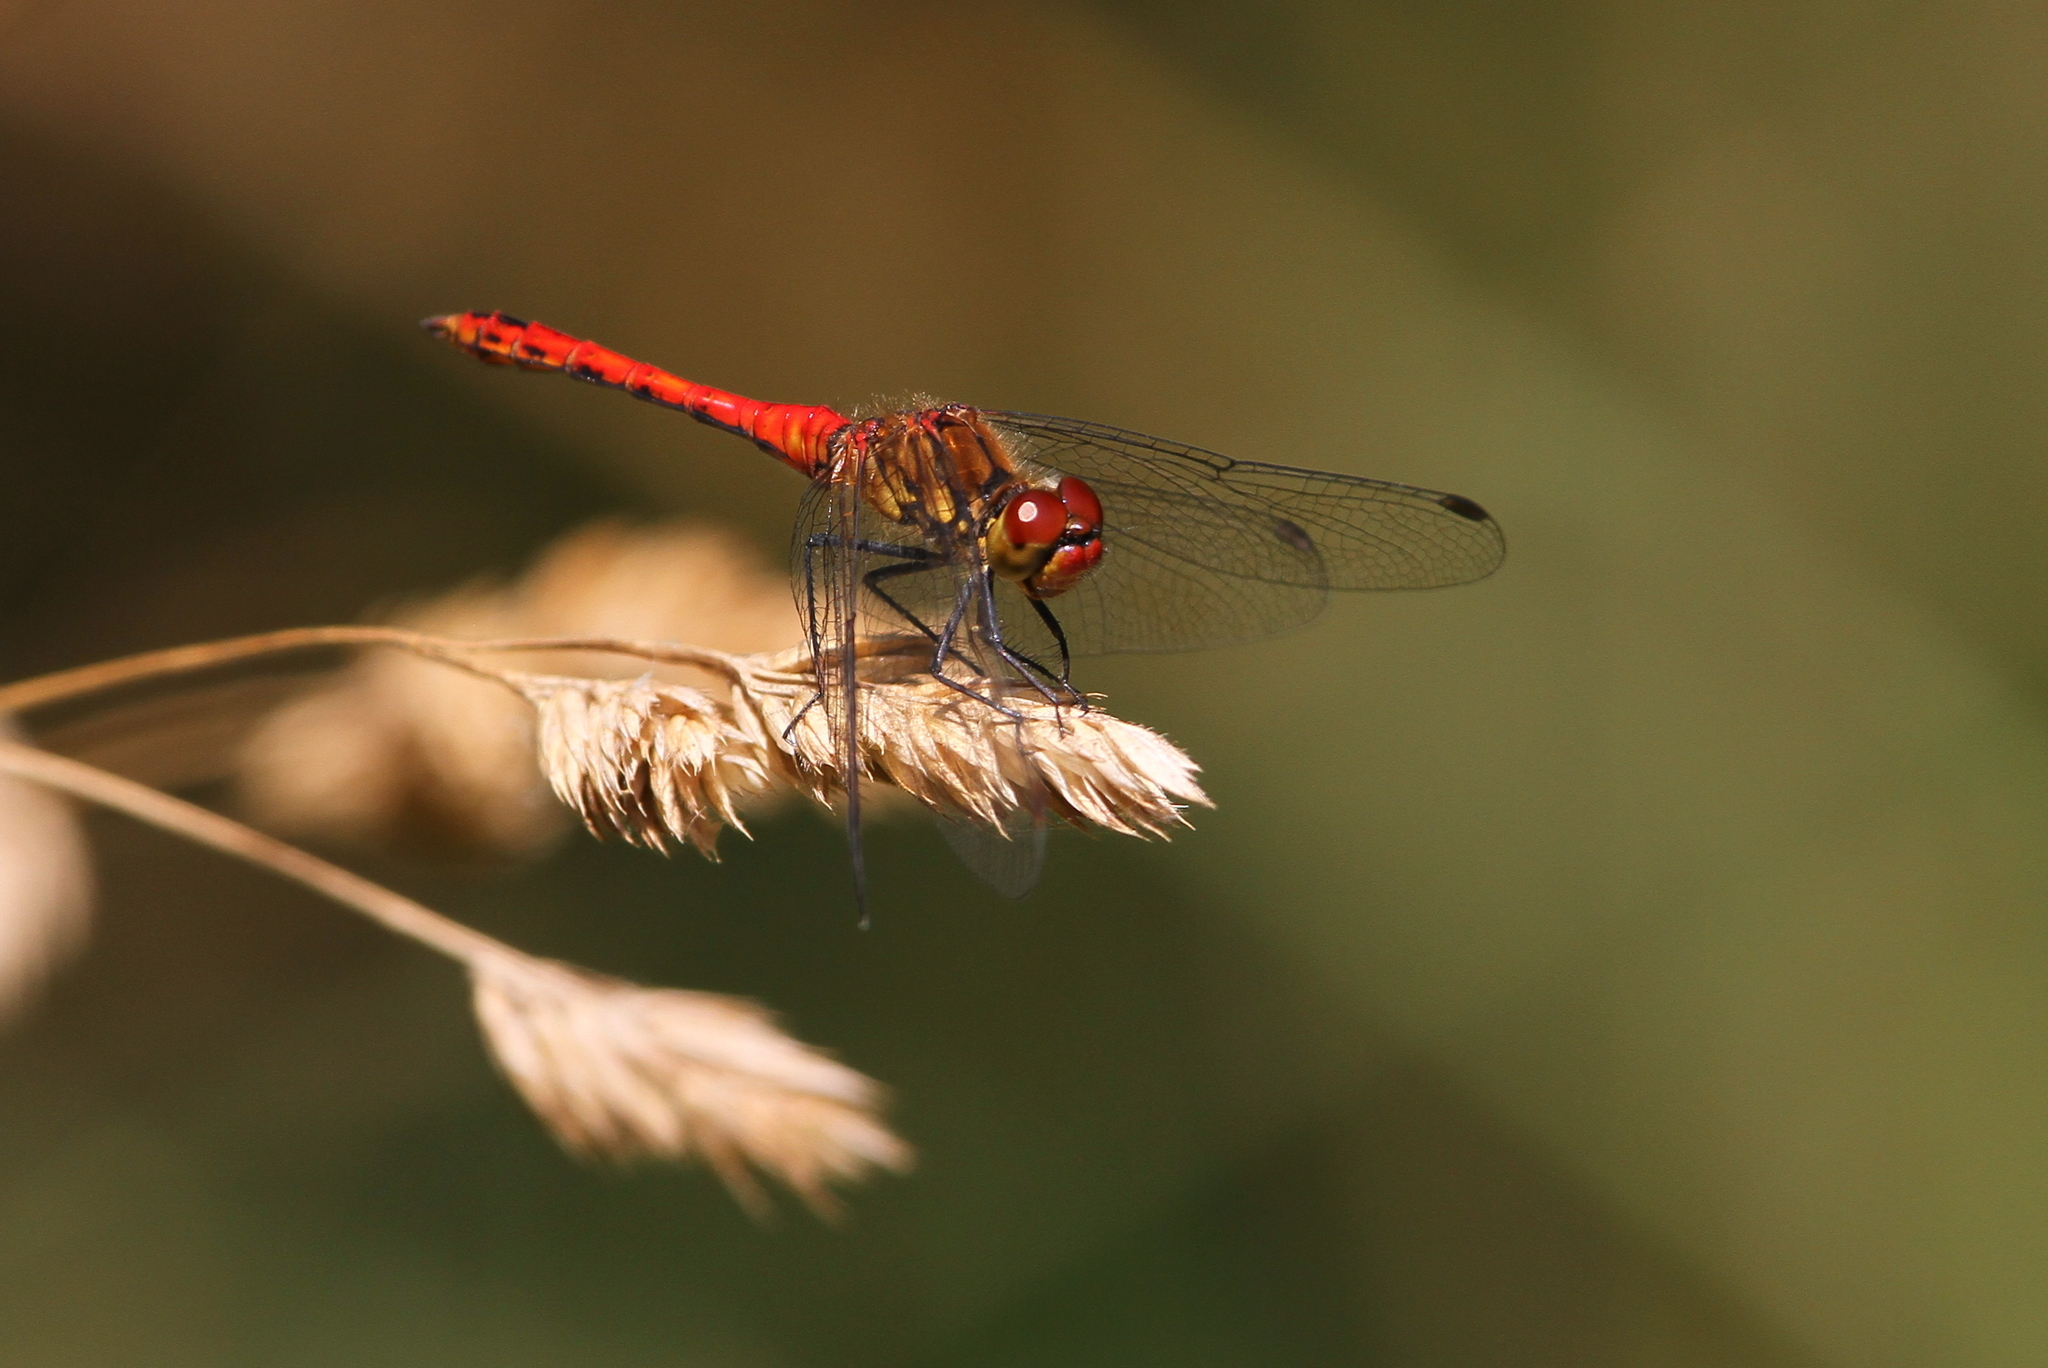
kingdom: Animalia
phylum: Arthropoda
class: Insecta
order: Odonata
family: Libellulidae
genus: Sympetrum
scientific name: Sympetrum sanguineum
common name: Ruddy darter
